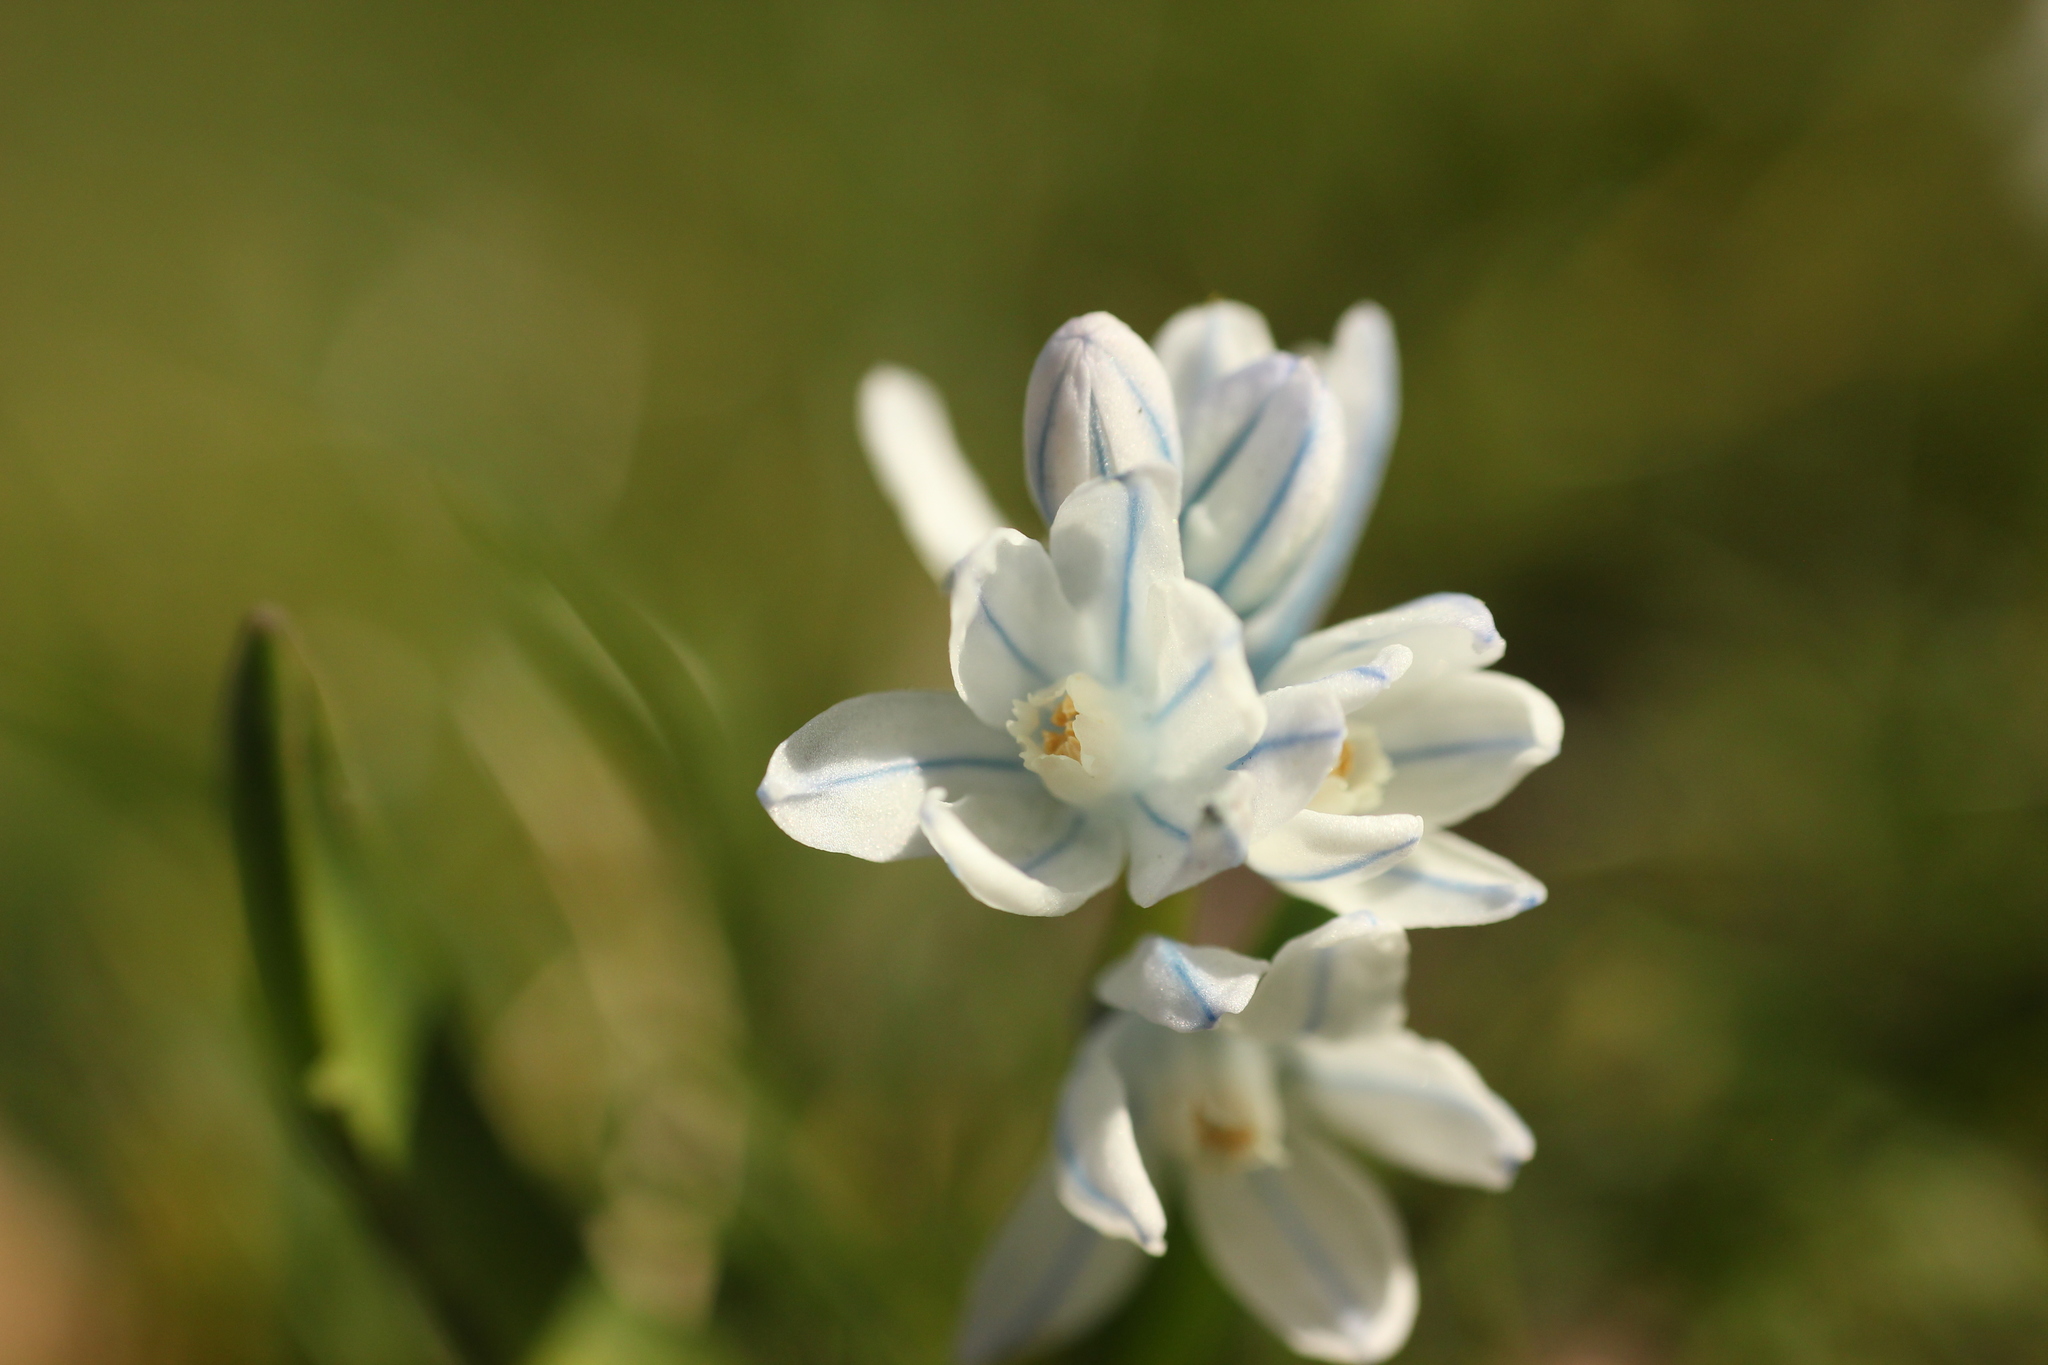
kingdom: Plantae
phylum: Tracheophyta
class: Liliopsida
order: Asparagales
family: Asparagaceae
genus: Puschkinia
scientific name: Puschkinia scilloides
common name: Striped squill
